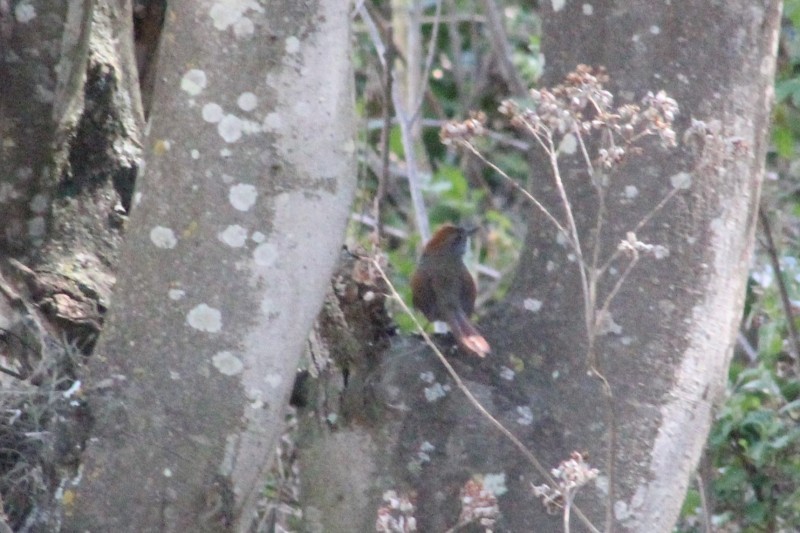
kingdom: Animalia
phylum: Chordata
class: Aves
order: Passeriformes
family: Furnariidae
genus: Synallaxis
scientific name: Synallaxis azarae
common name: Azara's spinetail
